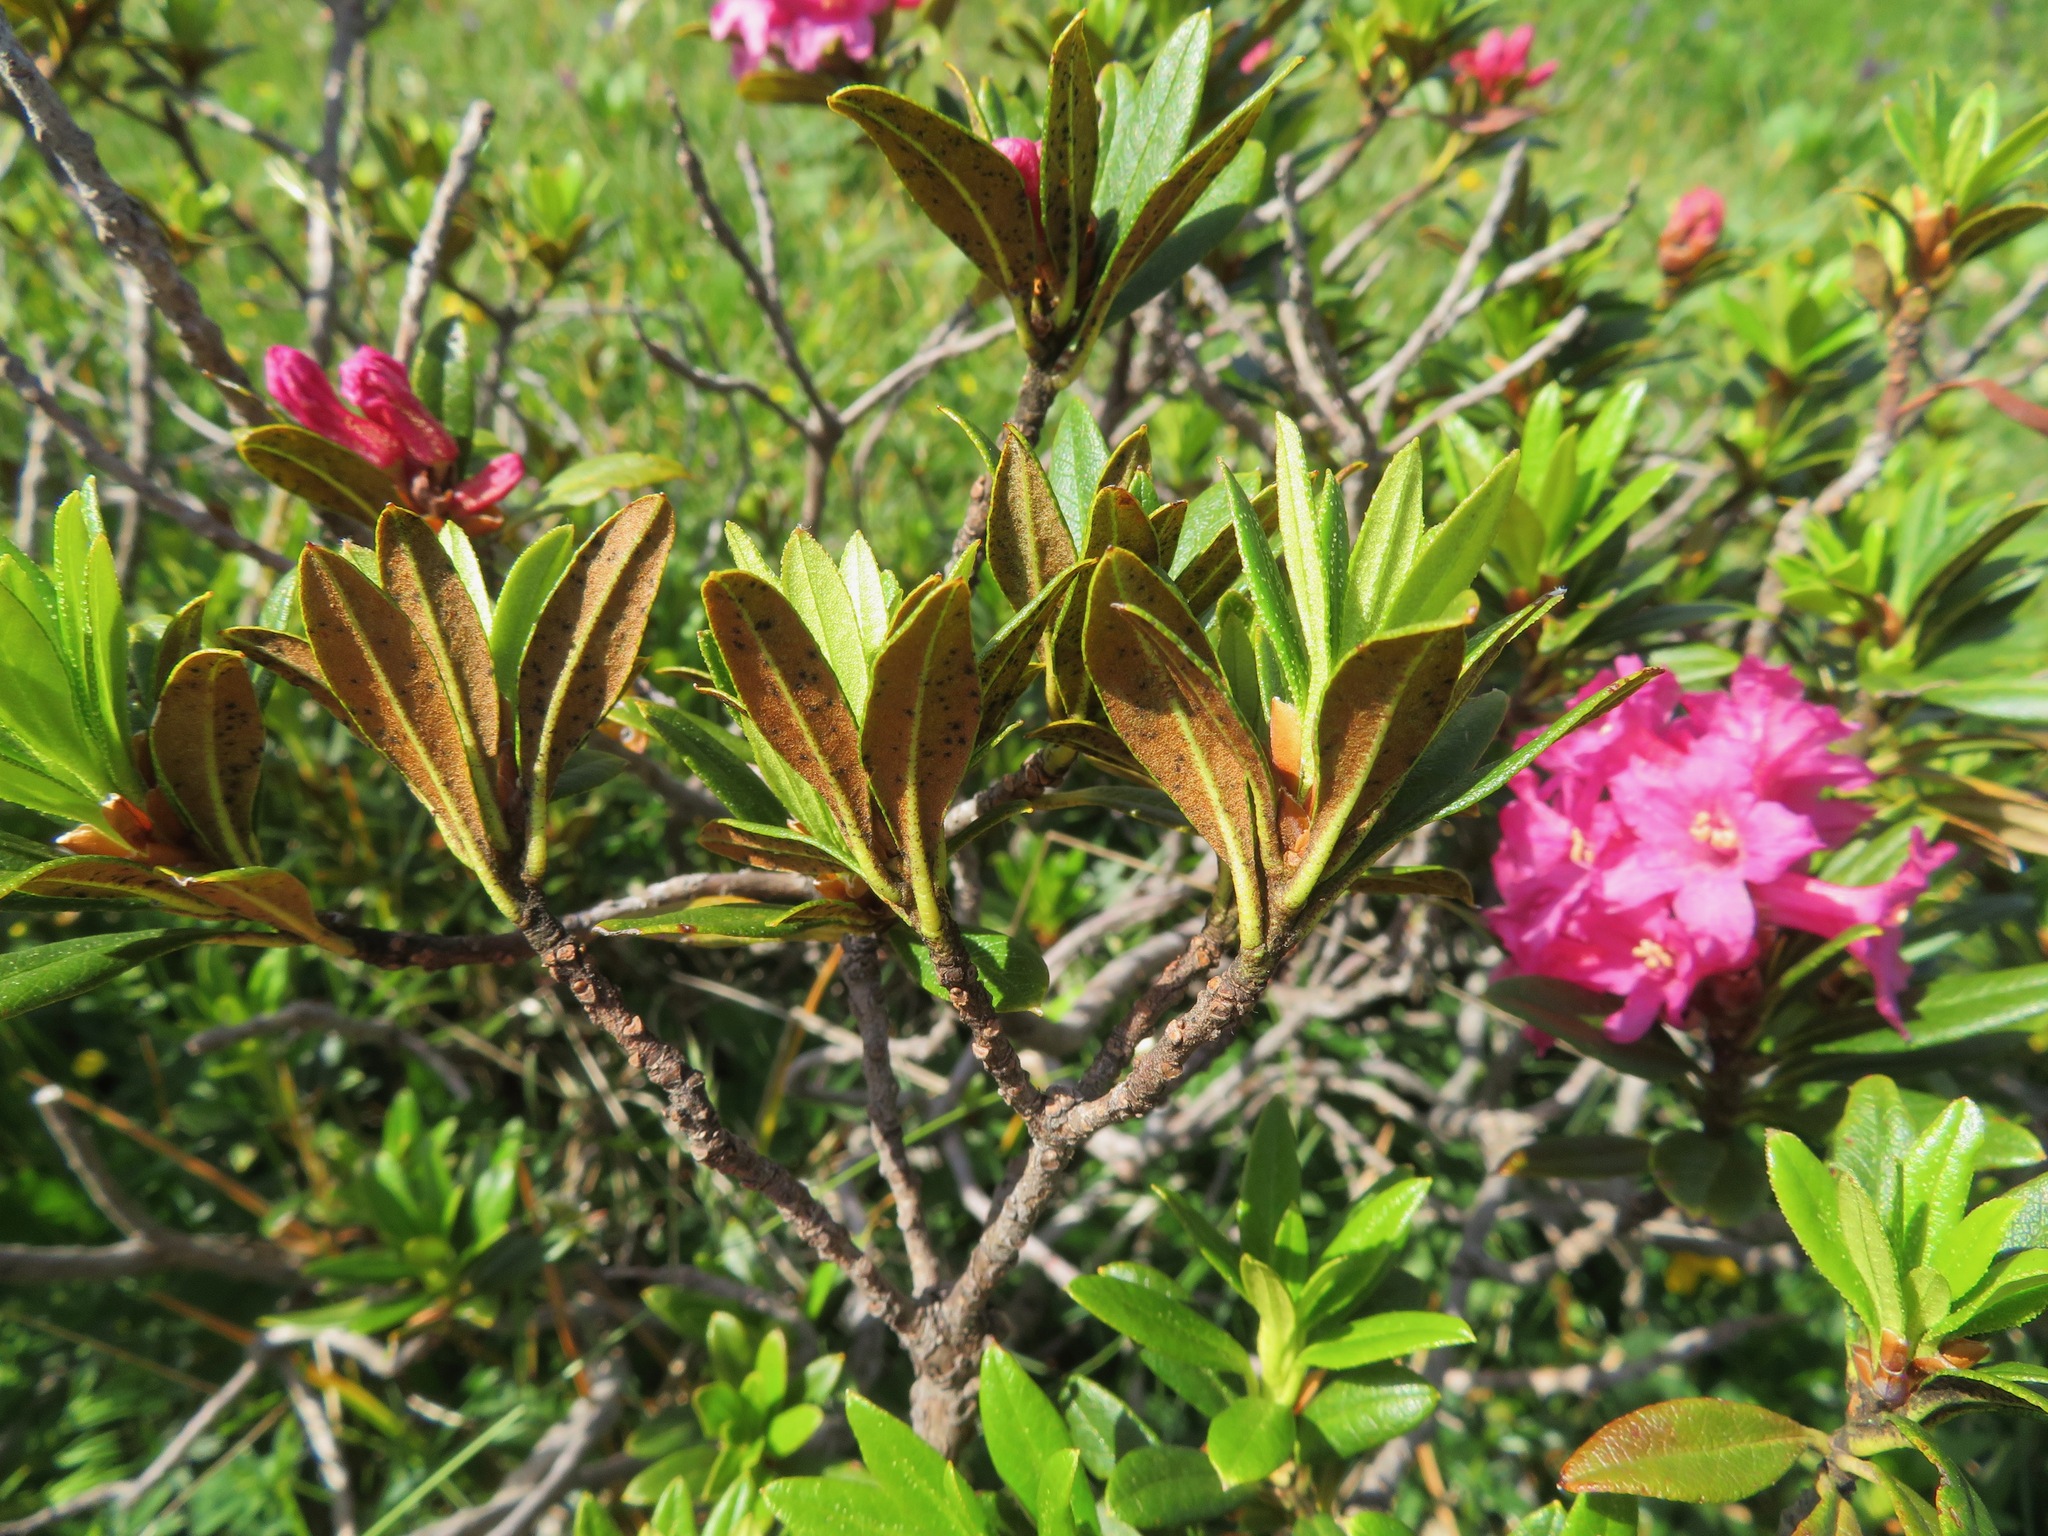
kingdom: Plantae
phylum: Tracheophyta
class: Magnoliopsida
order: Ericales
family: Ericaceae
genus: Rhododendron
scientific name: Rhododendron ferrugineum
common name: Alpenrose
